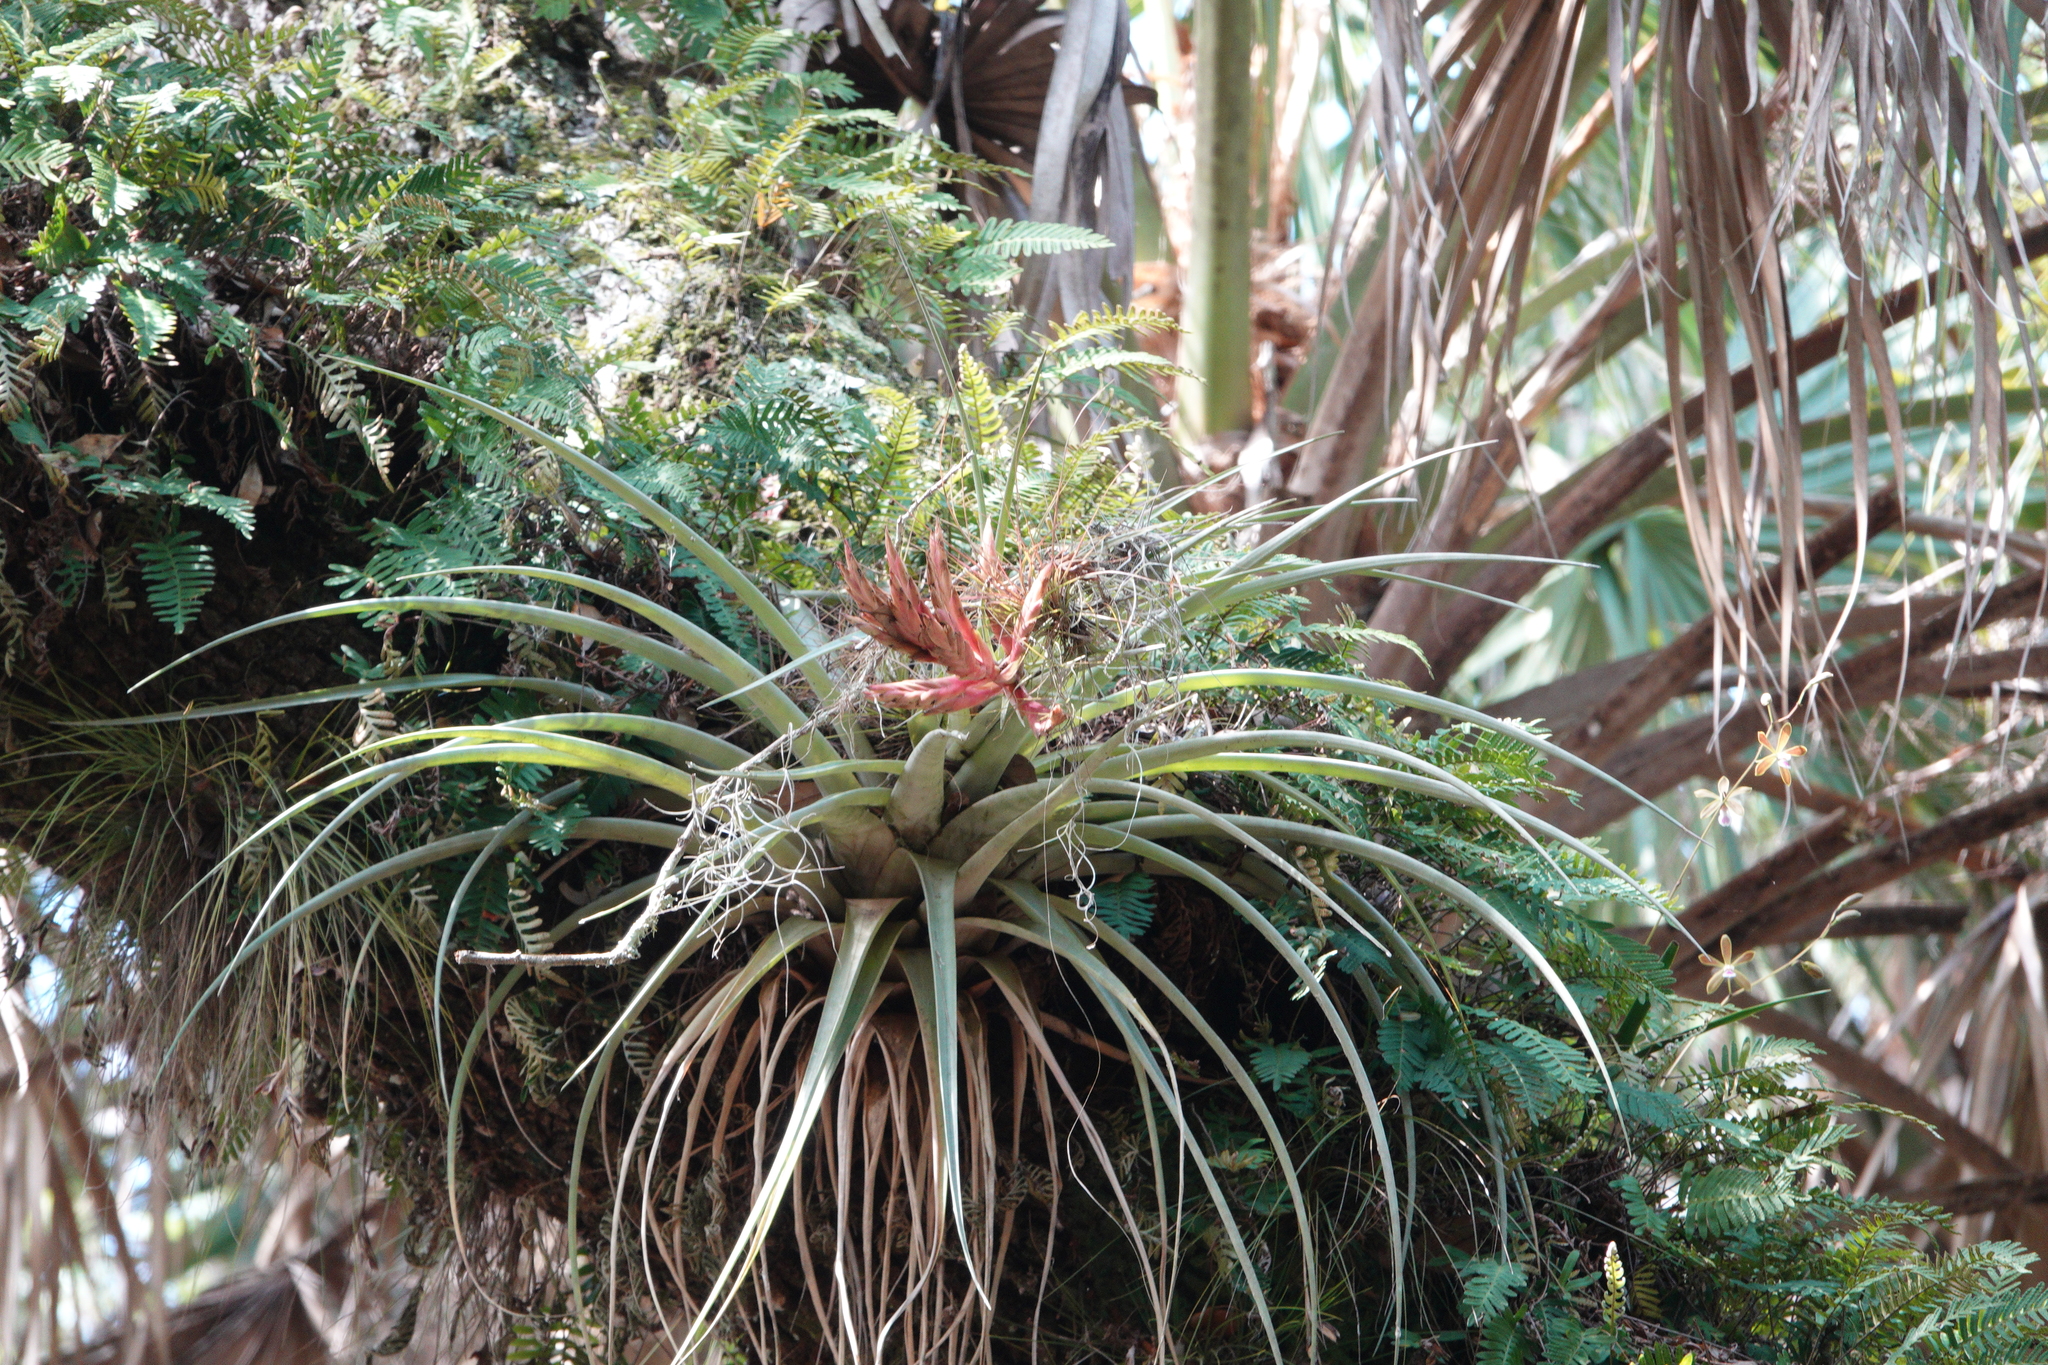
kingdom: Plantae
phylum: Tracheophyta
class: Liliopsida
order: Poales
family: Bromeliaceae
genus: Tillandsia
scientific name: Tillandsia fasciculata
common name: Giant airplant
